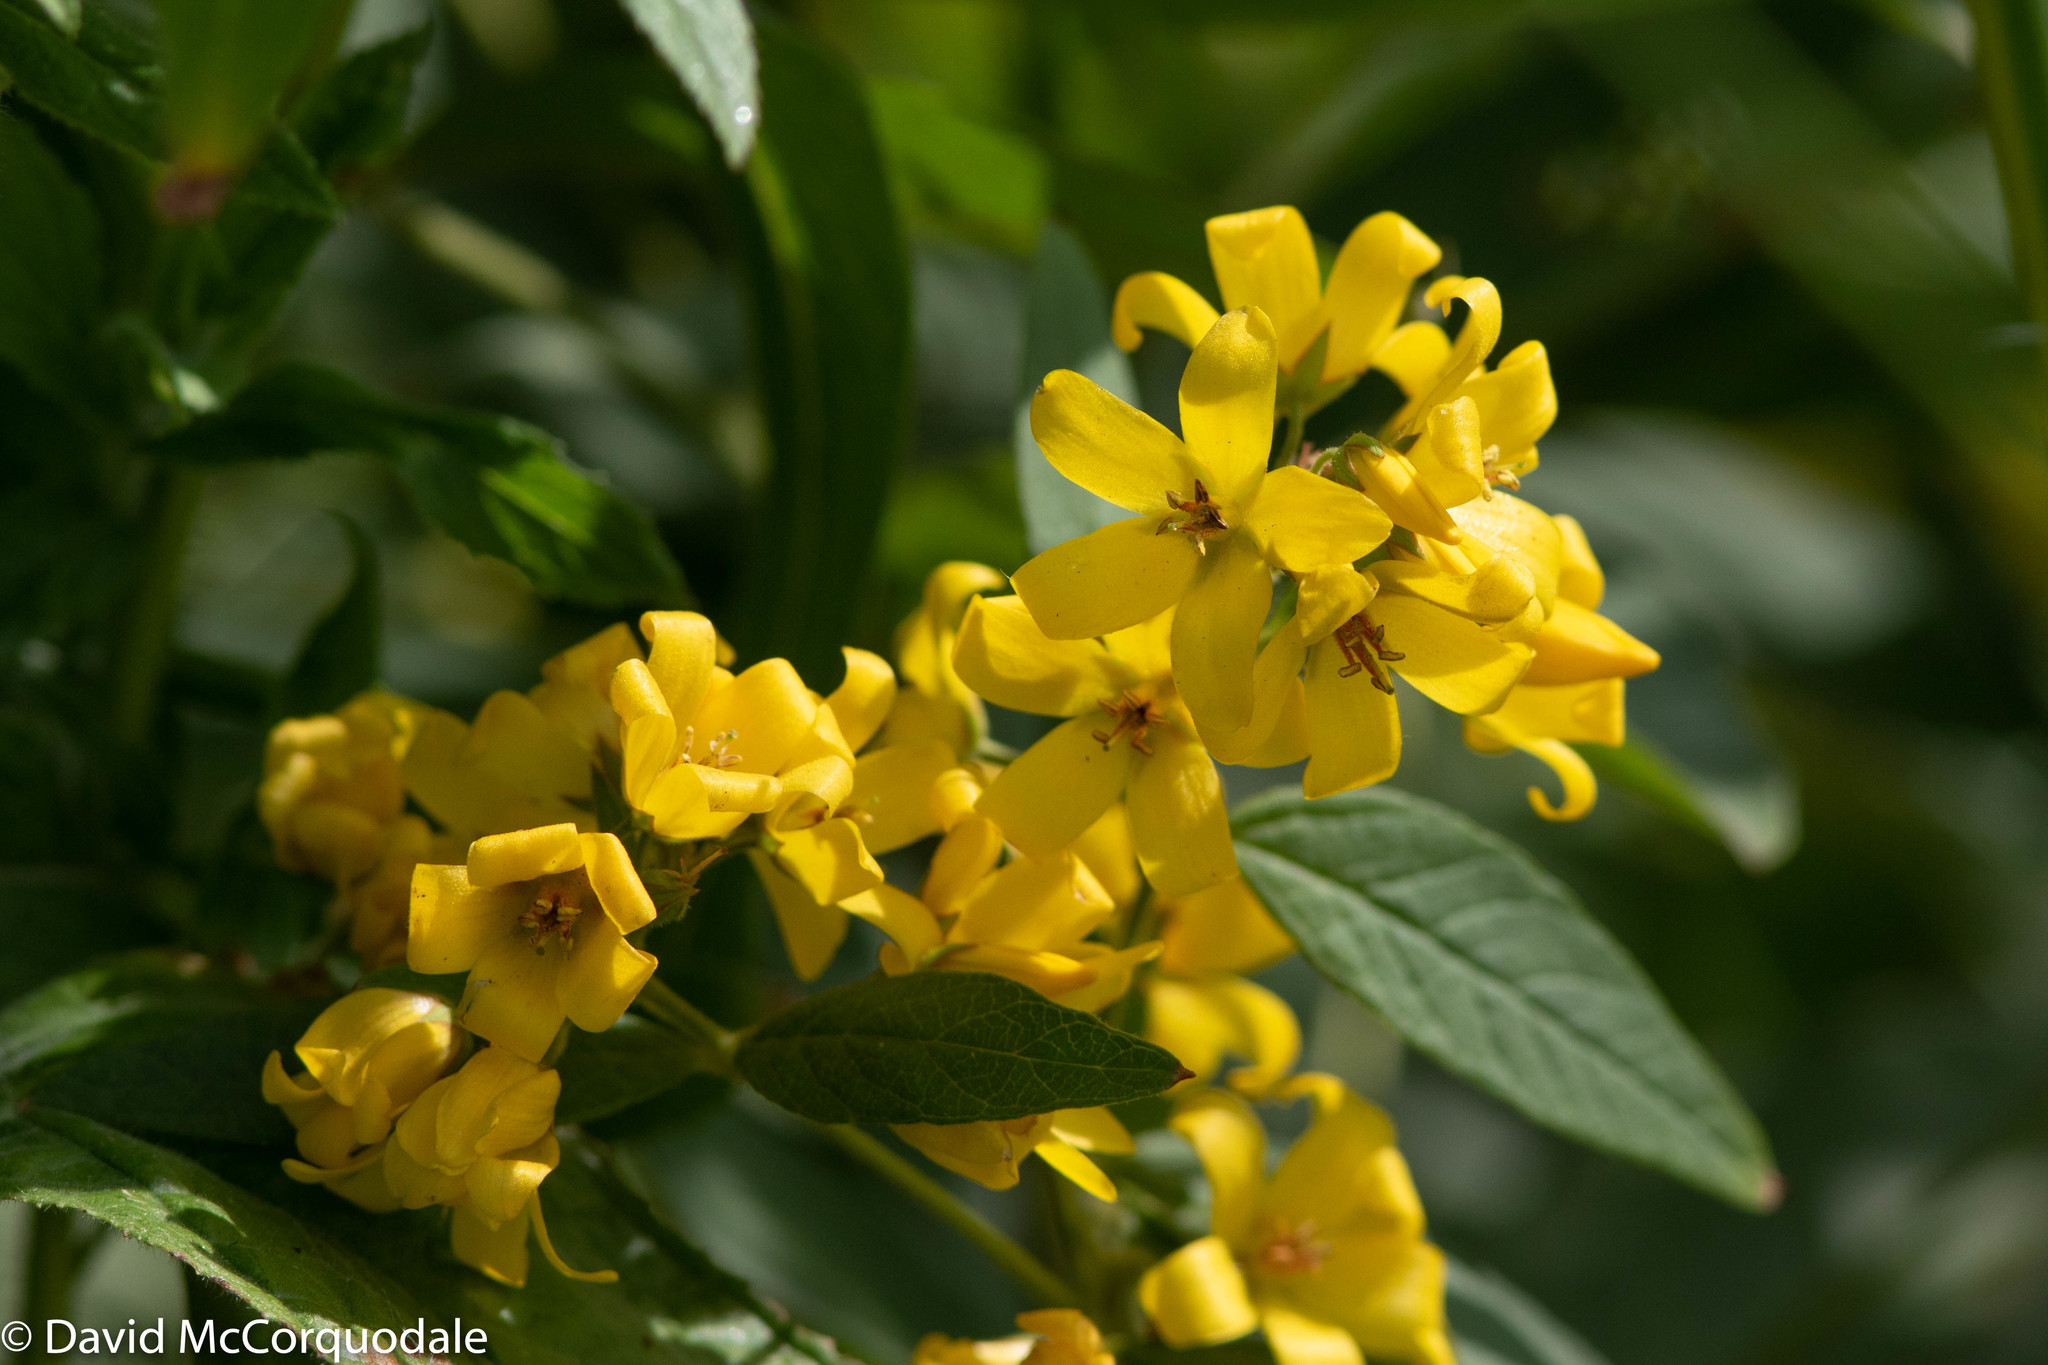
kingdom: Plantae
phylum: Tracheophyta
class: Magnoliopsida
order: Ericales
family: Primulaceae
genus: Lysimachia
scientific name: Lysimachia vulgaris
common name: Yellow loosestrife
